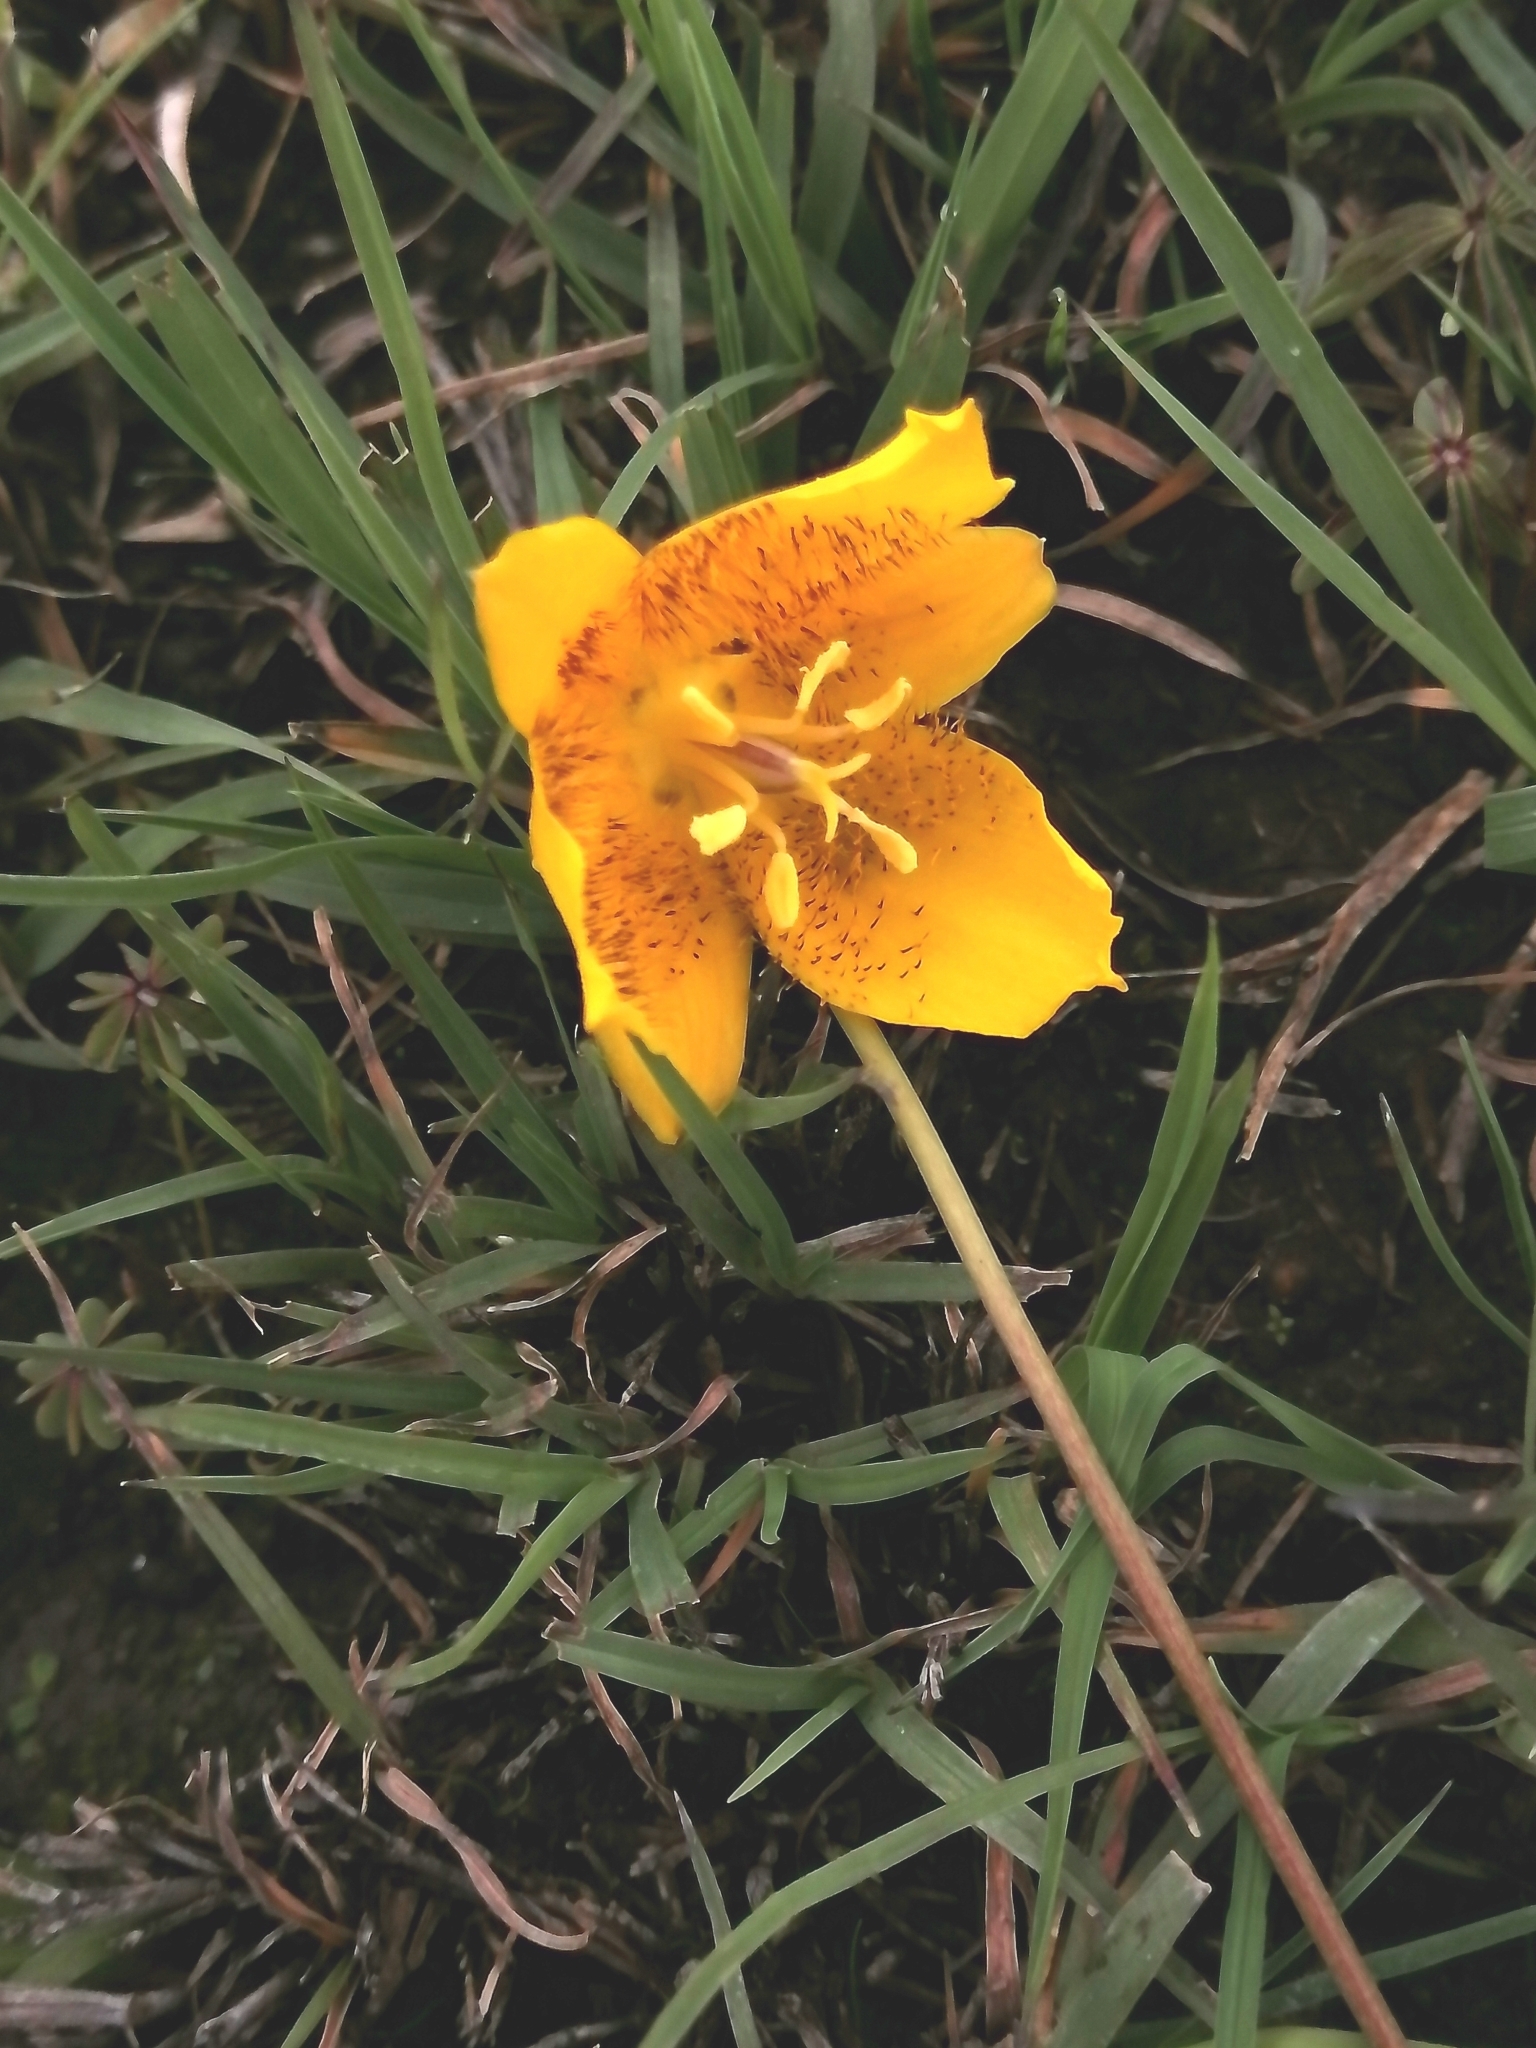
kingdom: Plantae
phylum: Tracheophyta
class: Liliopsida
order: Liliales
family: Liliaceae
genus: Calochortus
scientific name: Calochortus barbatus
